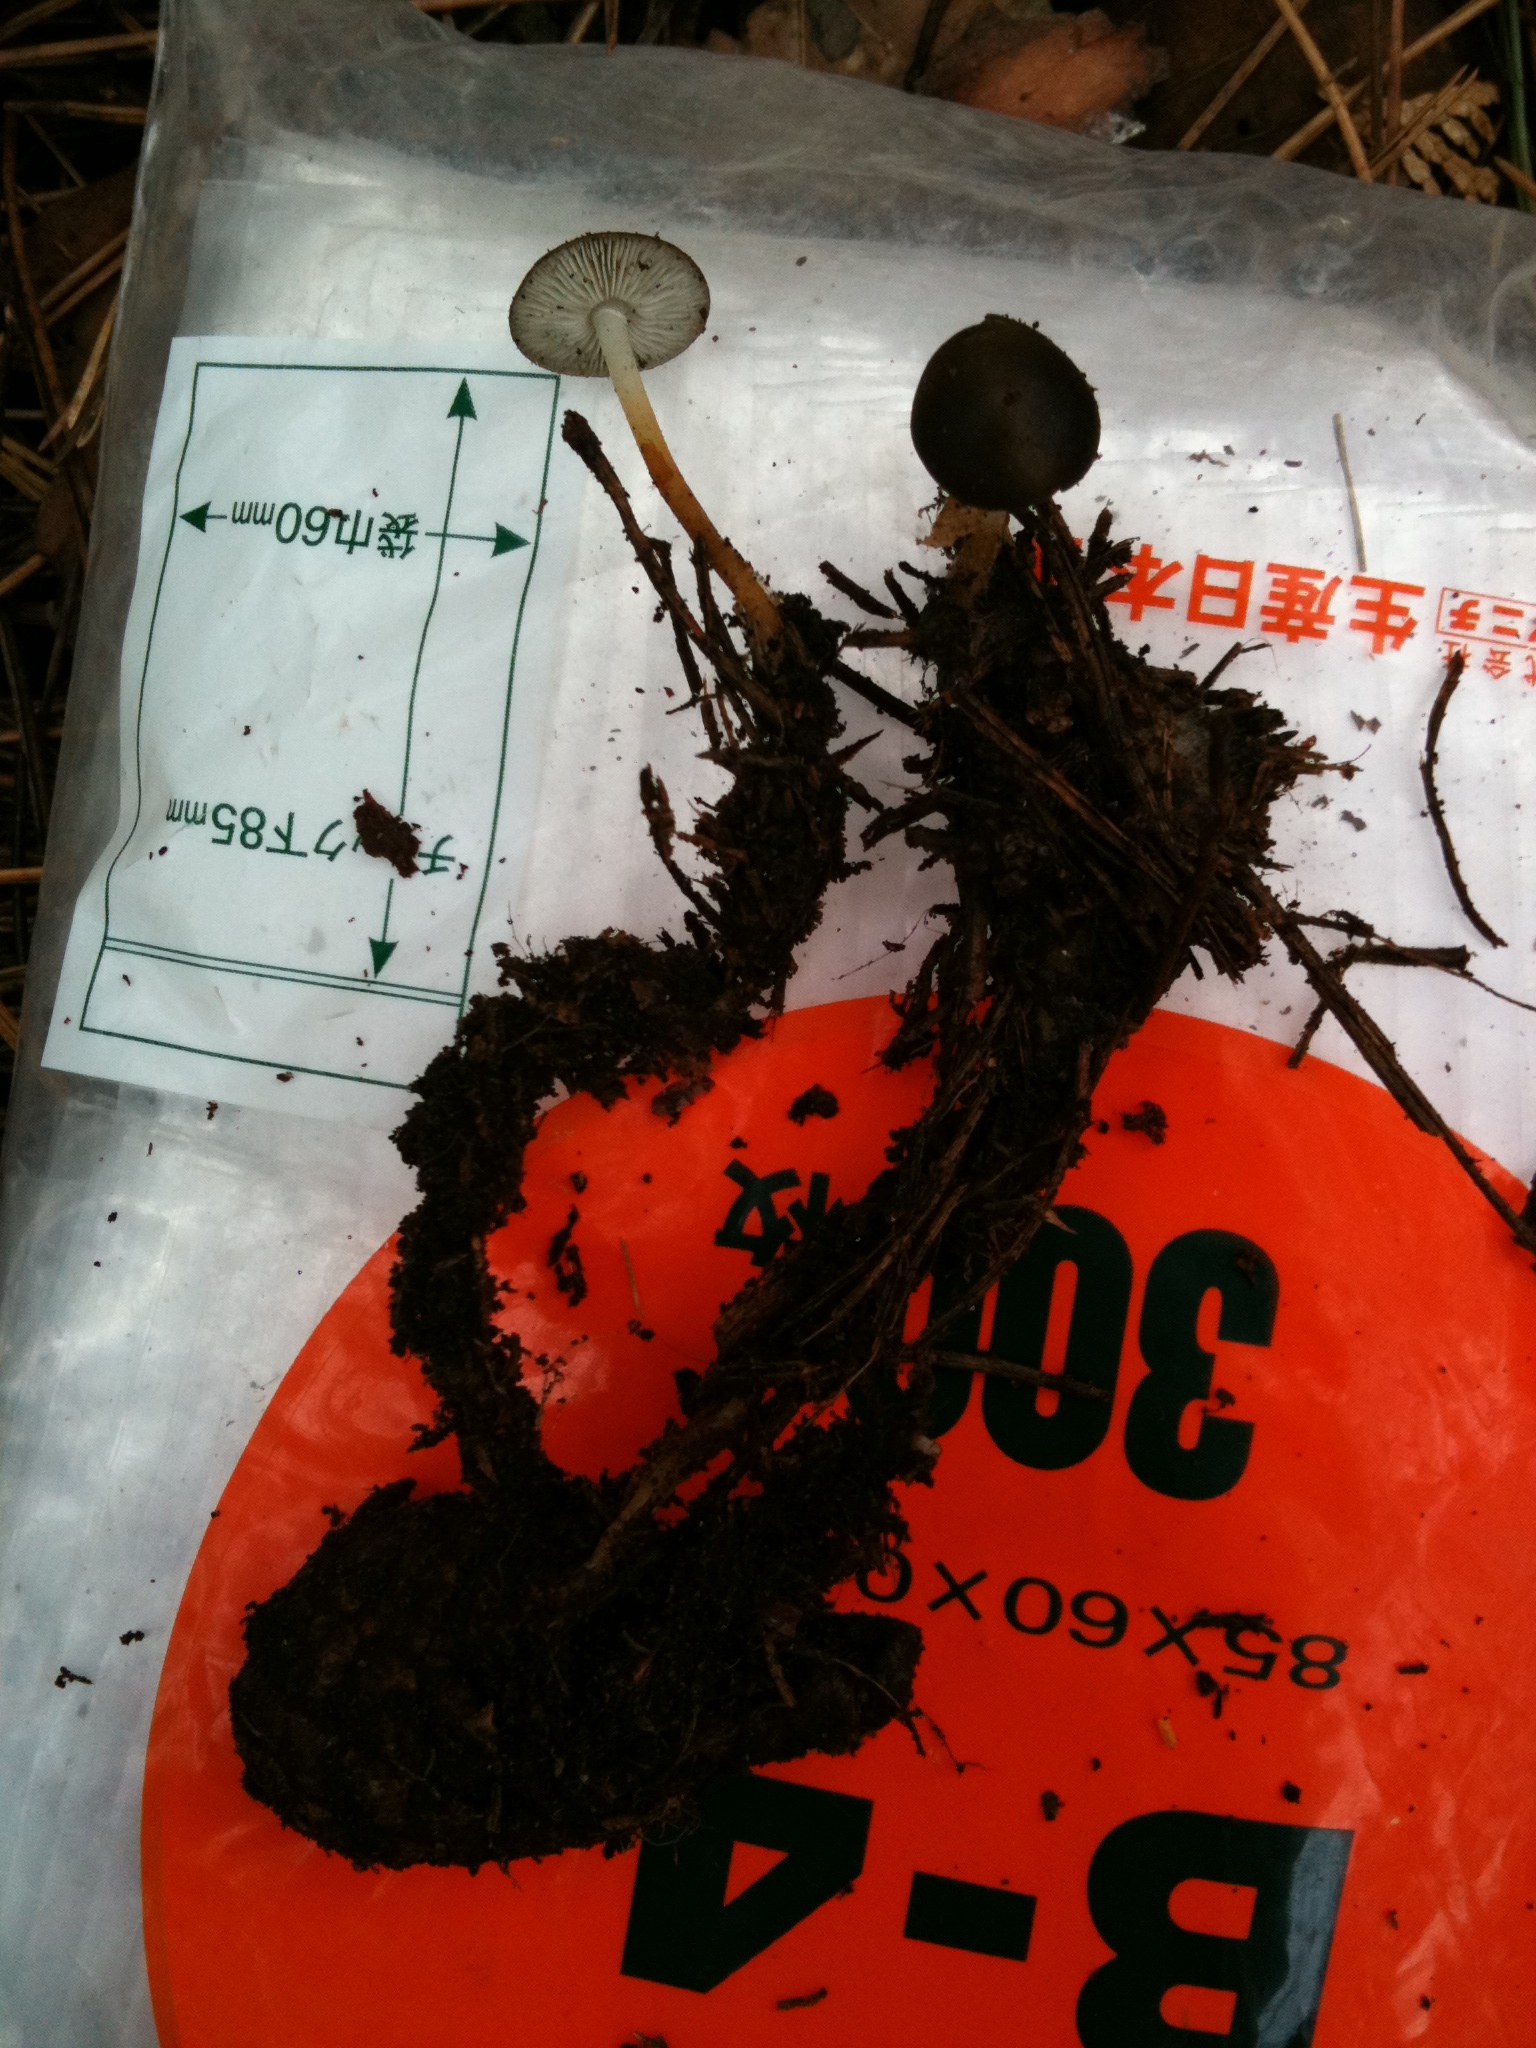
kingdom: Fungi
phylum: Basidiomycota
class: Agaricomycetes
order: Agaricales
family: Physalacriaceae
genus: Strobilurus
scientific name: Strobilurus stephanocystis
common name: Russian conecap
